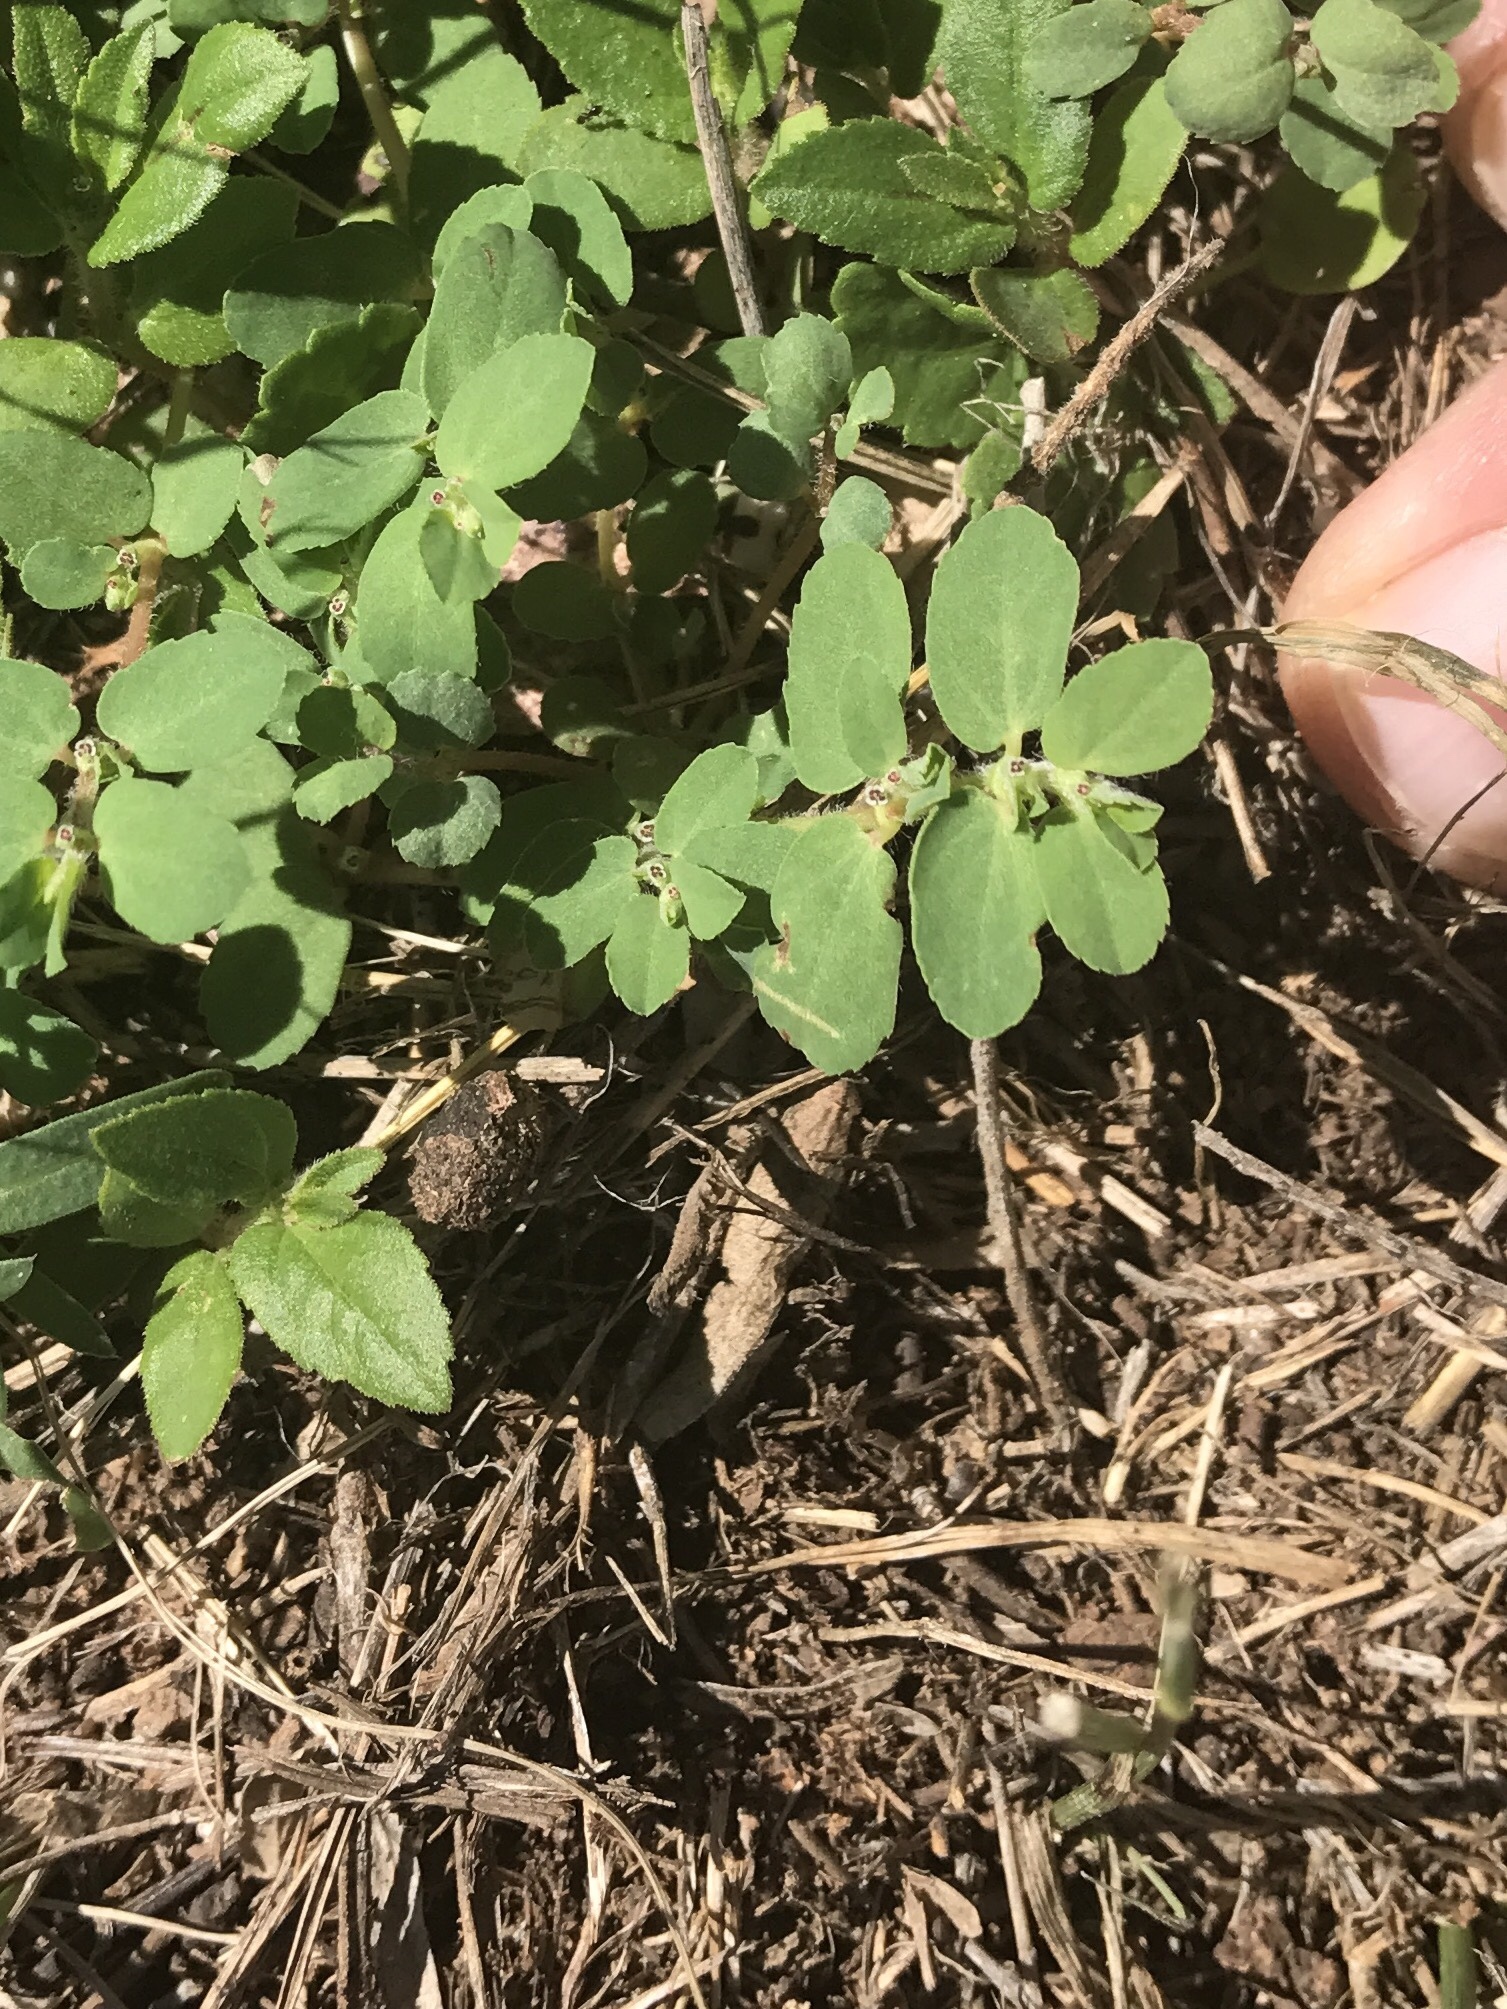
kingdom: Plantae
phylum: Tracheophyta
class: Magnoliopsida
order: Malpighiales
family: Euphorbiaceae
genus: Euphorbia
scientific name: Euphorbia stictospora
